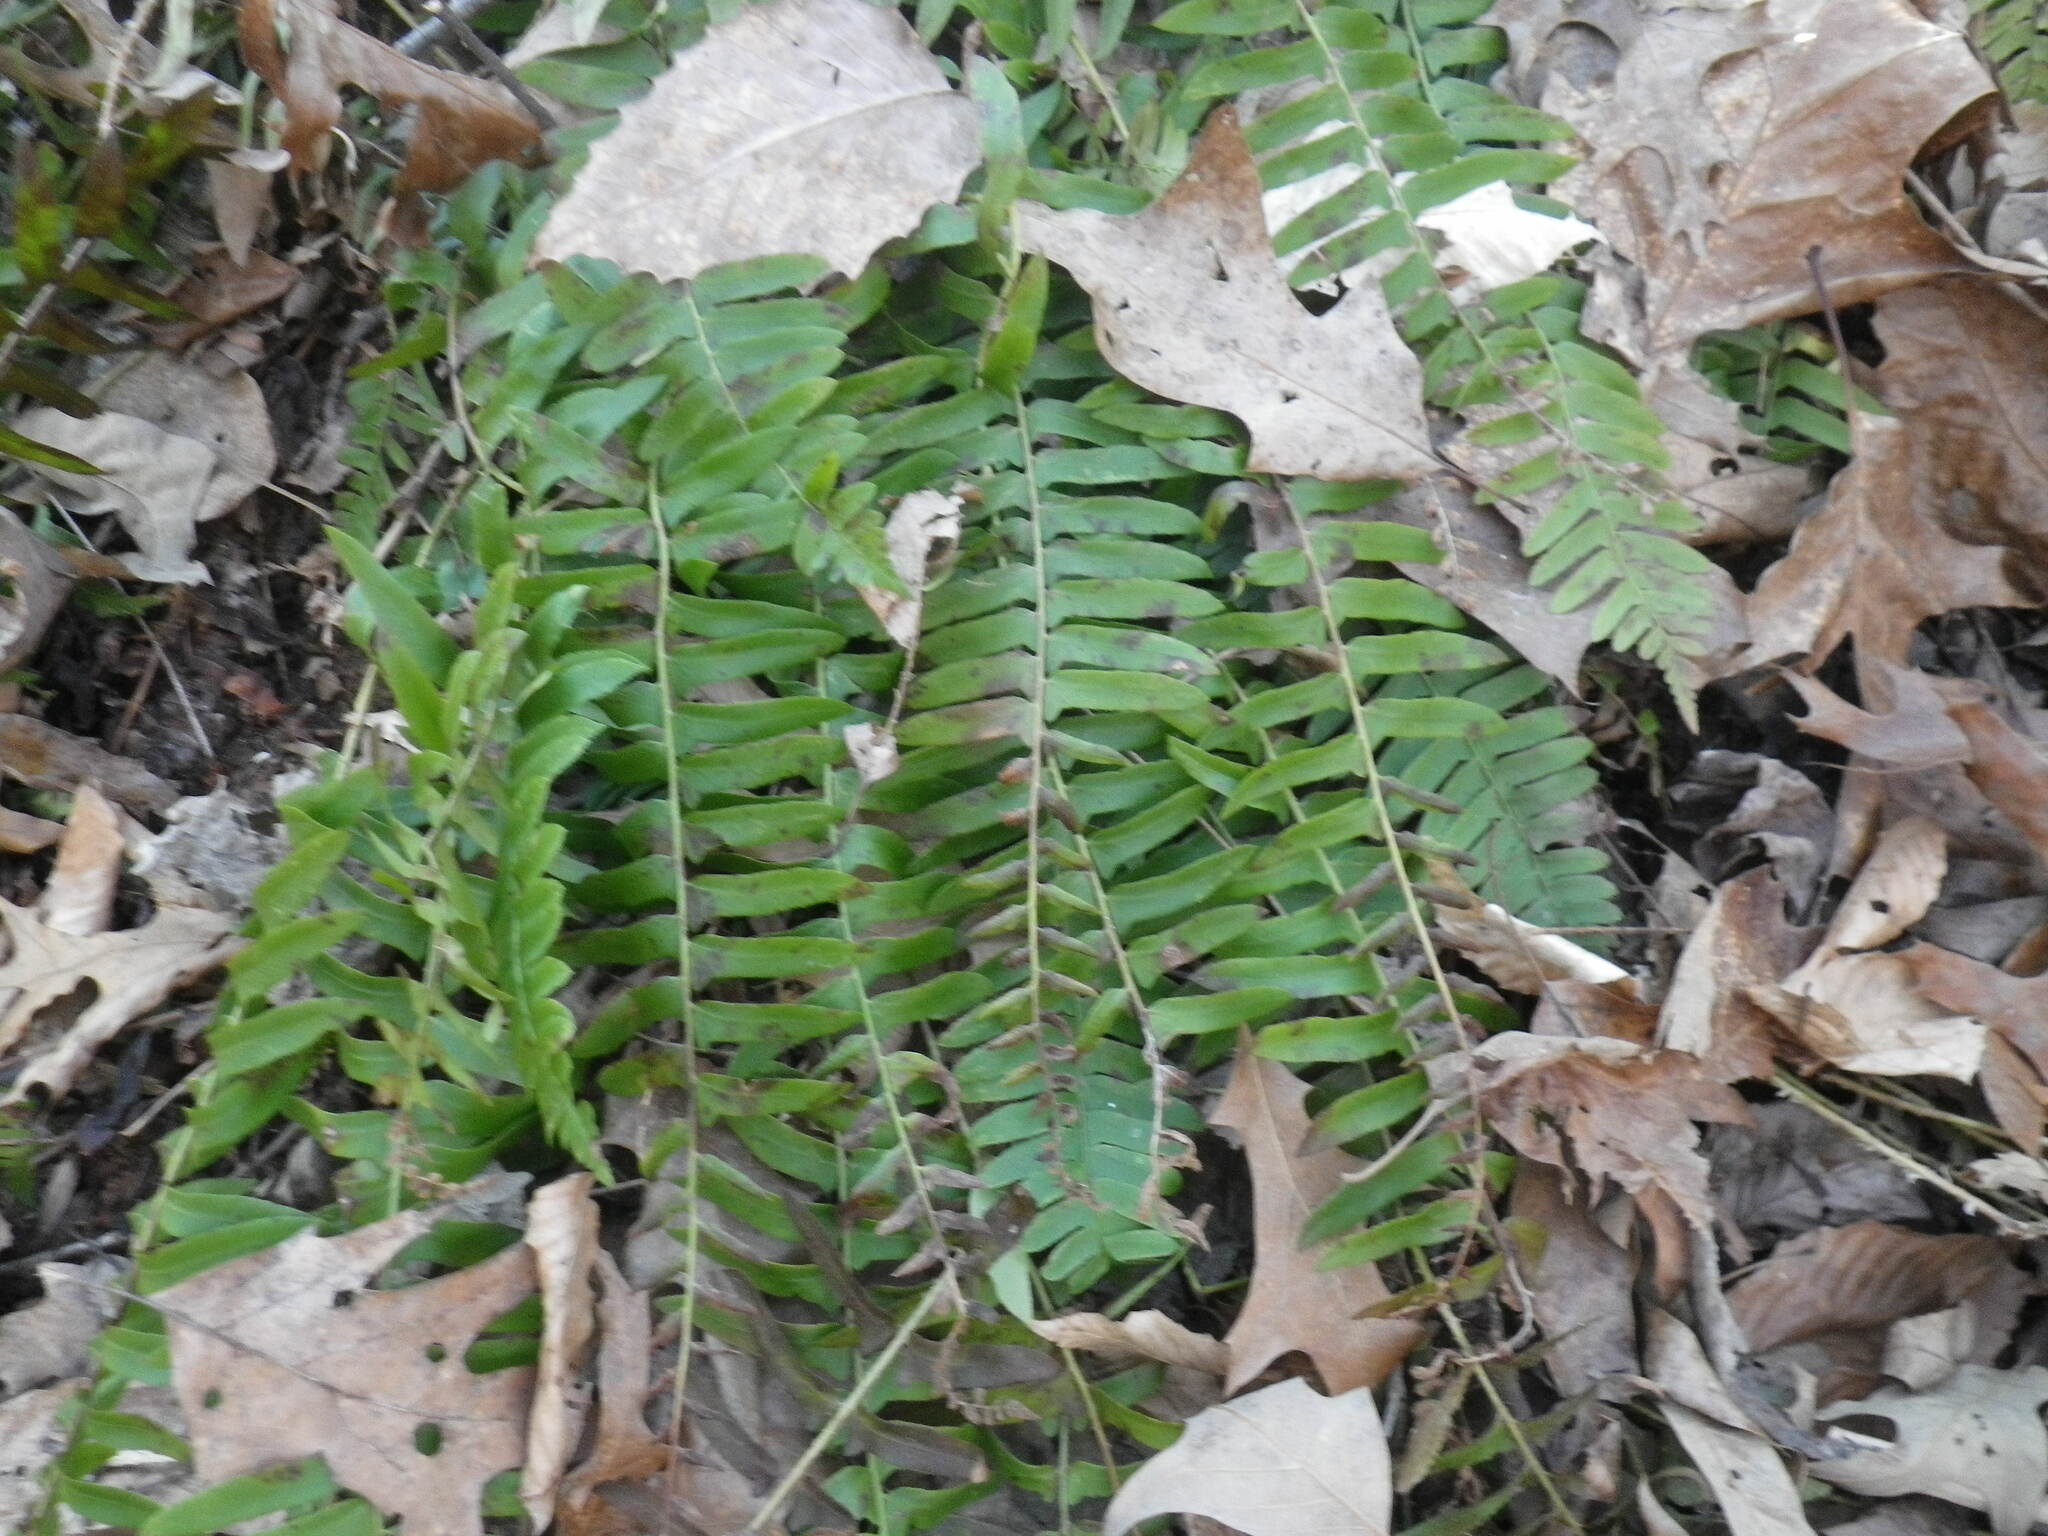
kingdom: Plantae
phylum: Tracheophyta
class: Polypodiopsida
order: Polypodiales
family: Dryopteridaceae
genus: Polystichum
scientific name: Polystichum acrostichoides
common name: Christmas fern
